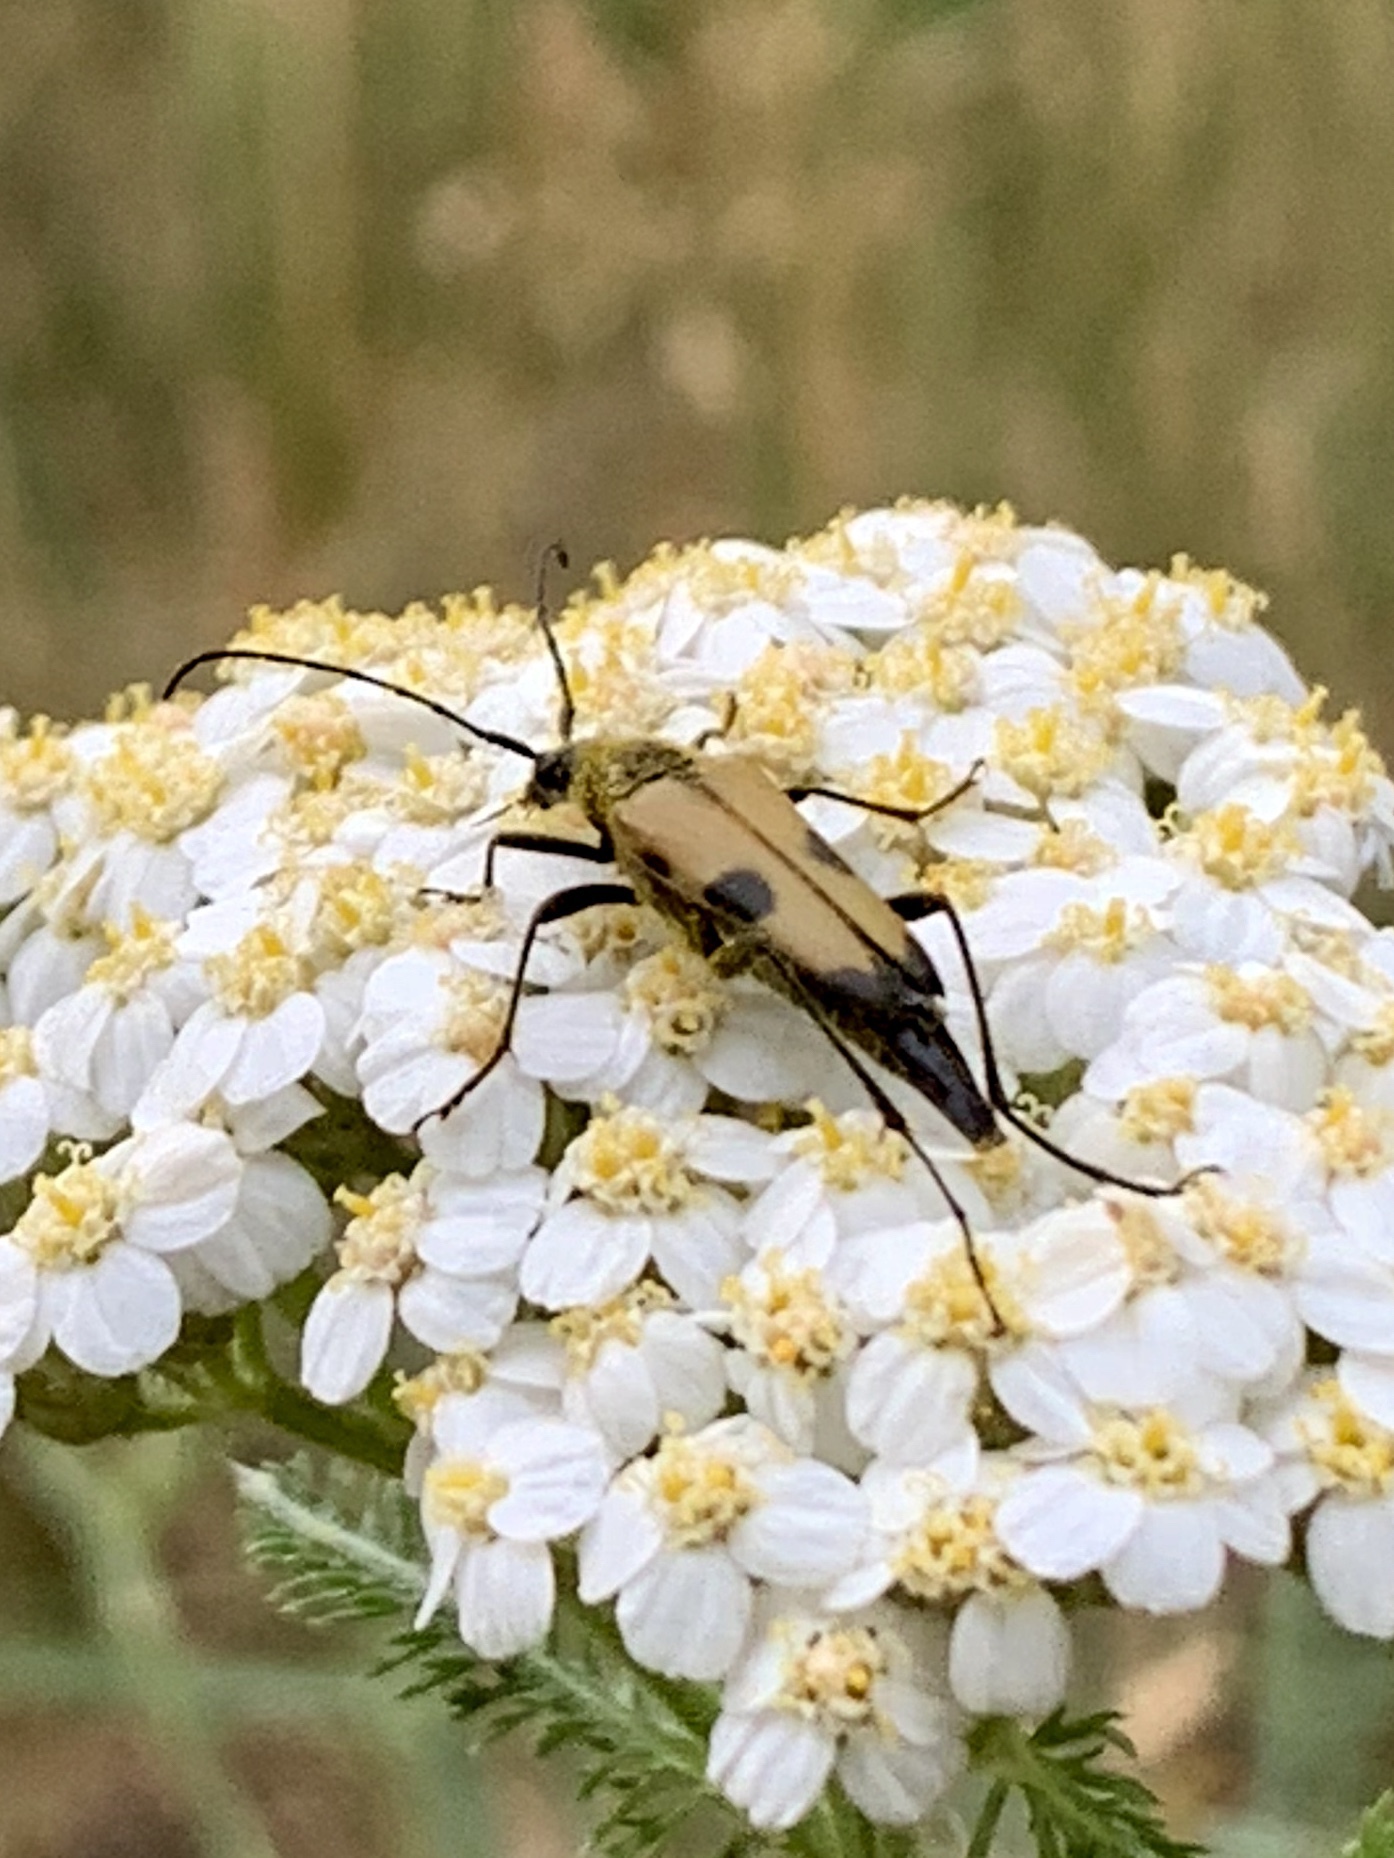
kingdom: Animalia
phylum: Arthropoda
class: Insecta
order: Coleoptera
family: Cerambycidae
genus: Etorofus
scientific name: Etorofus
